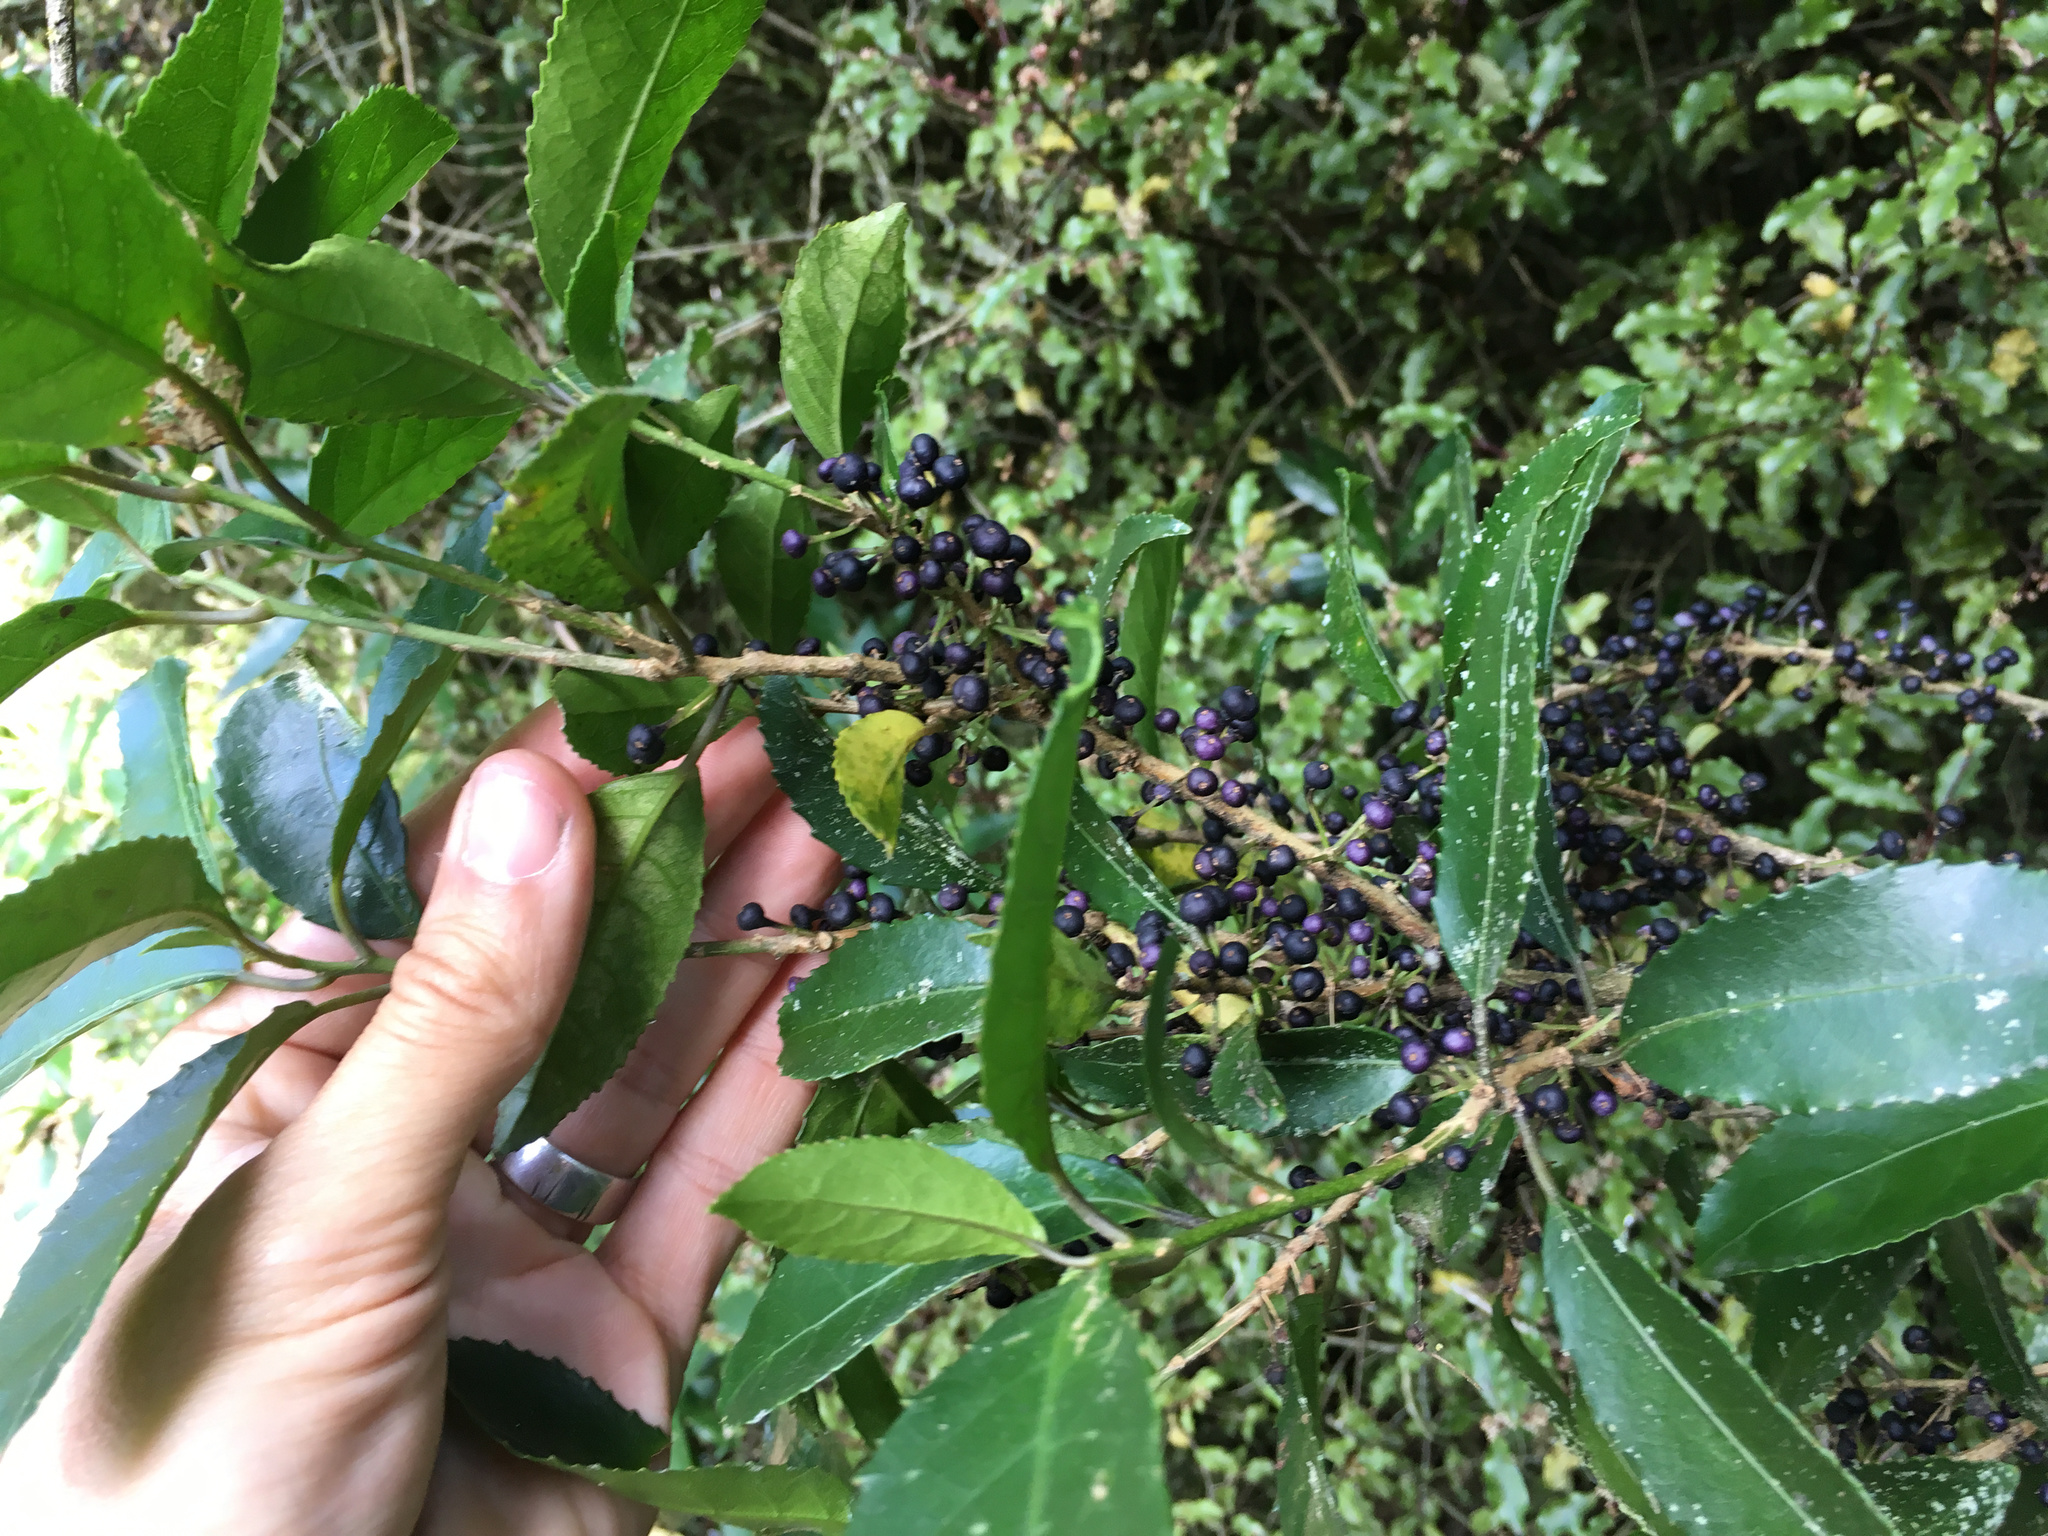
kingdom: Plantae
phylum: Tracheophyta
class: Magnoliopsida
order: Malpighiales
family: Violaceae
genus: Melicytus
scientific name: Melicytus ramiflorus
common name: Mahoe
